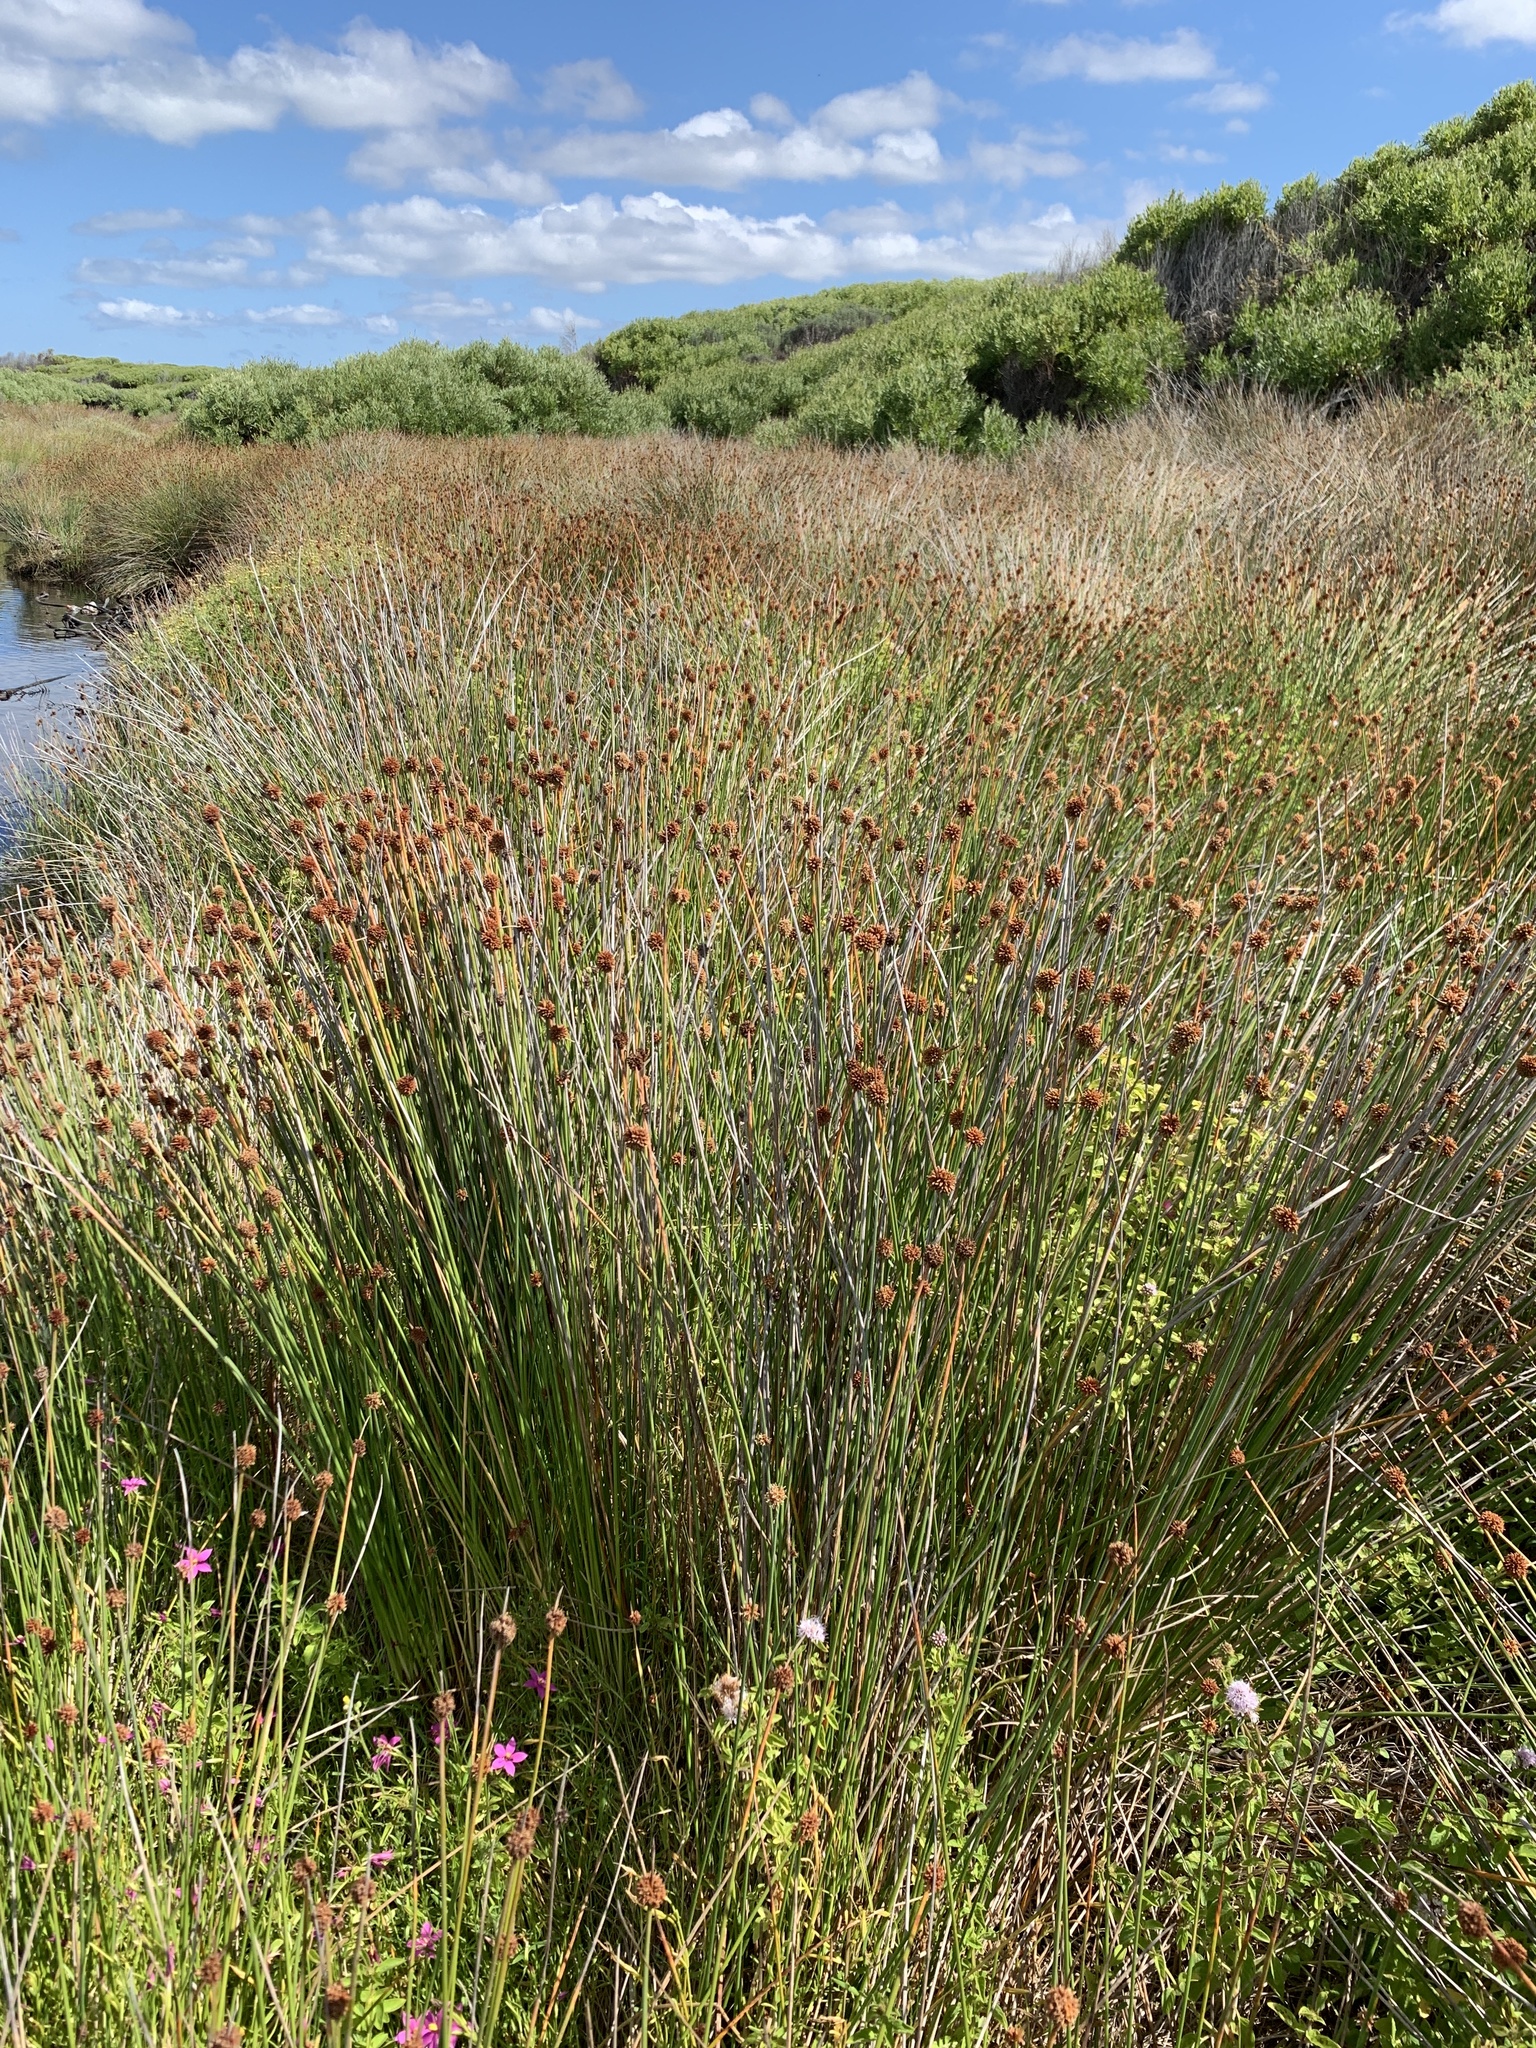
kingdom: Plantae
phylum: Tracheophyta
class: Liliopsida
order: Poales
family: Cyperaceae
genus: Ficinia
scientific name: Ficinia nodosa
